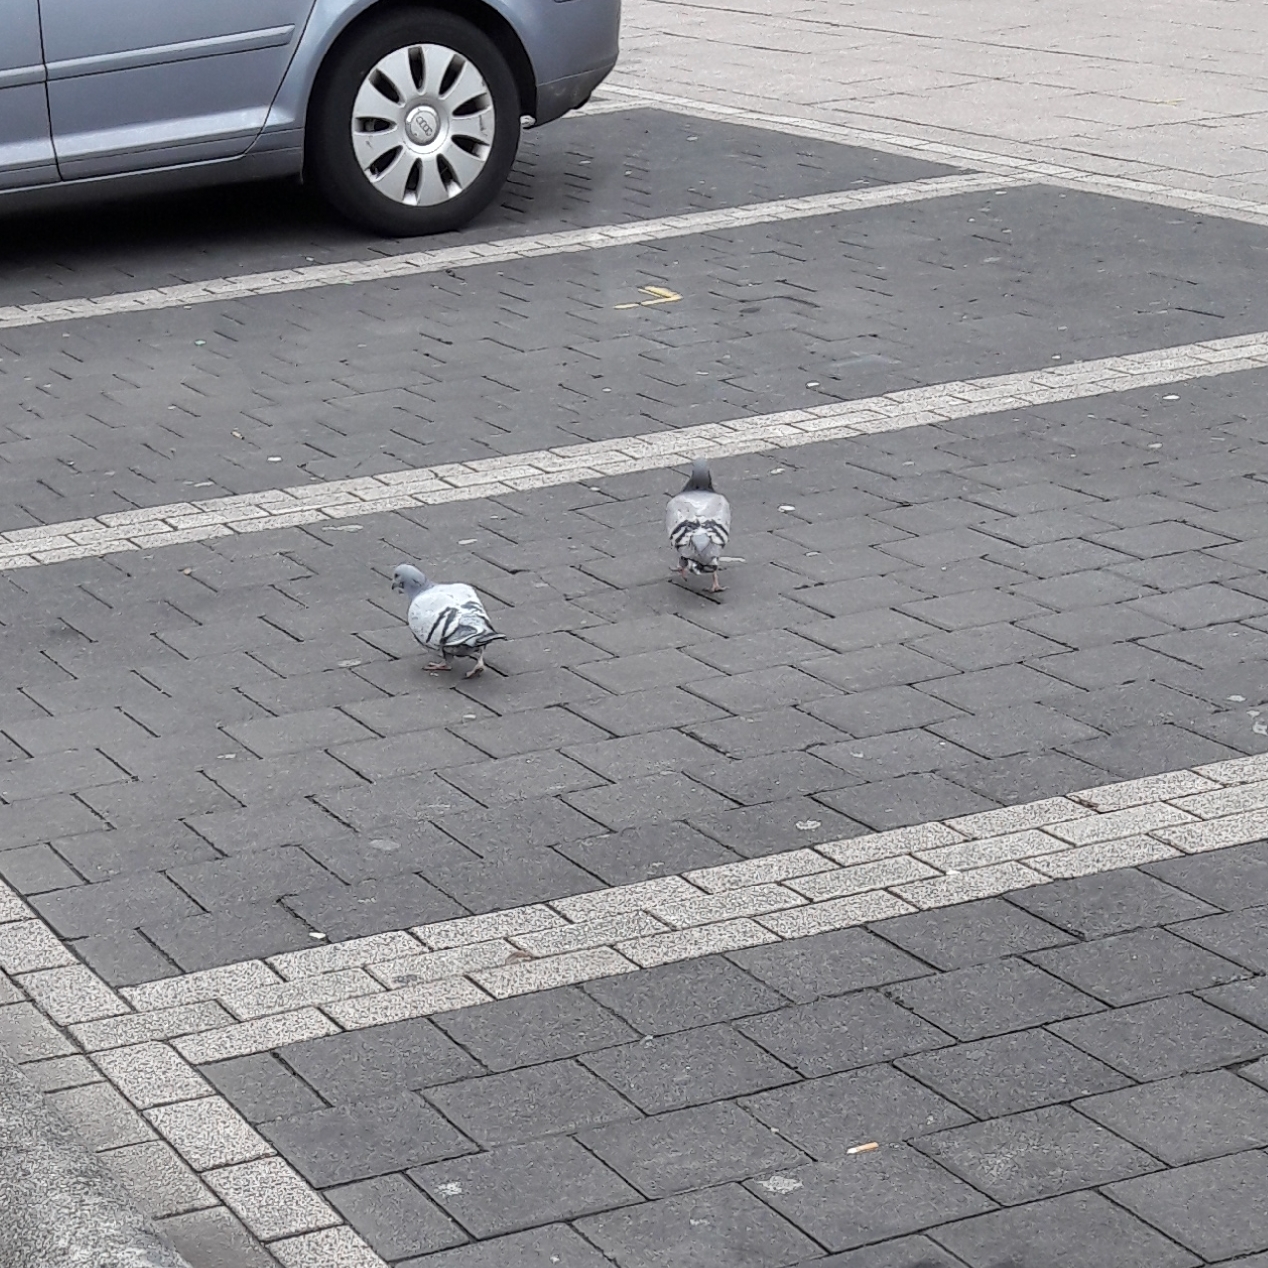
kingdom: Animalia
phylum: Chordata
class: Aves
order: Columbiformes
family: Columbidae
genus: Columba
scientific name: Columba livia
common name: Rock pigeon
